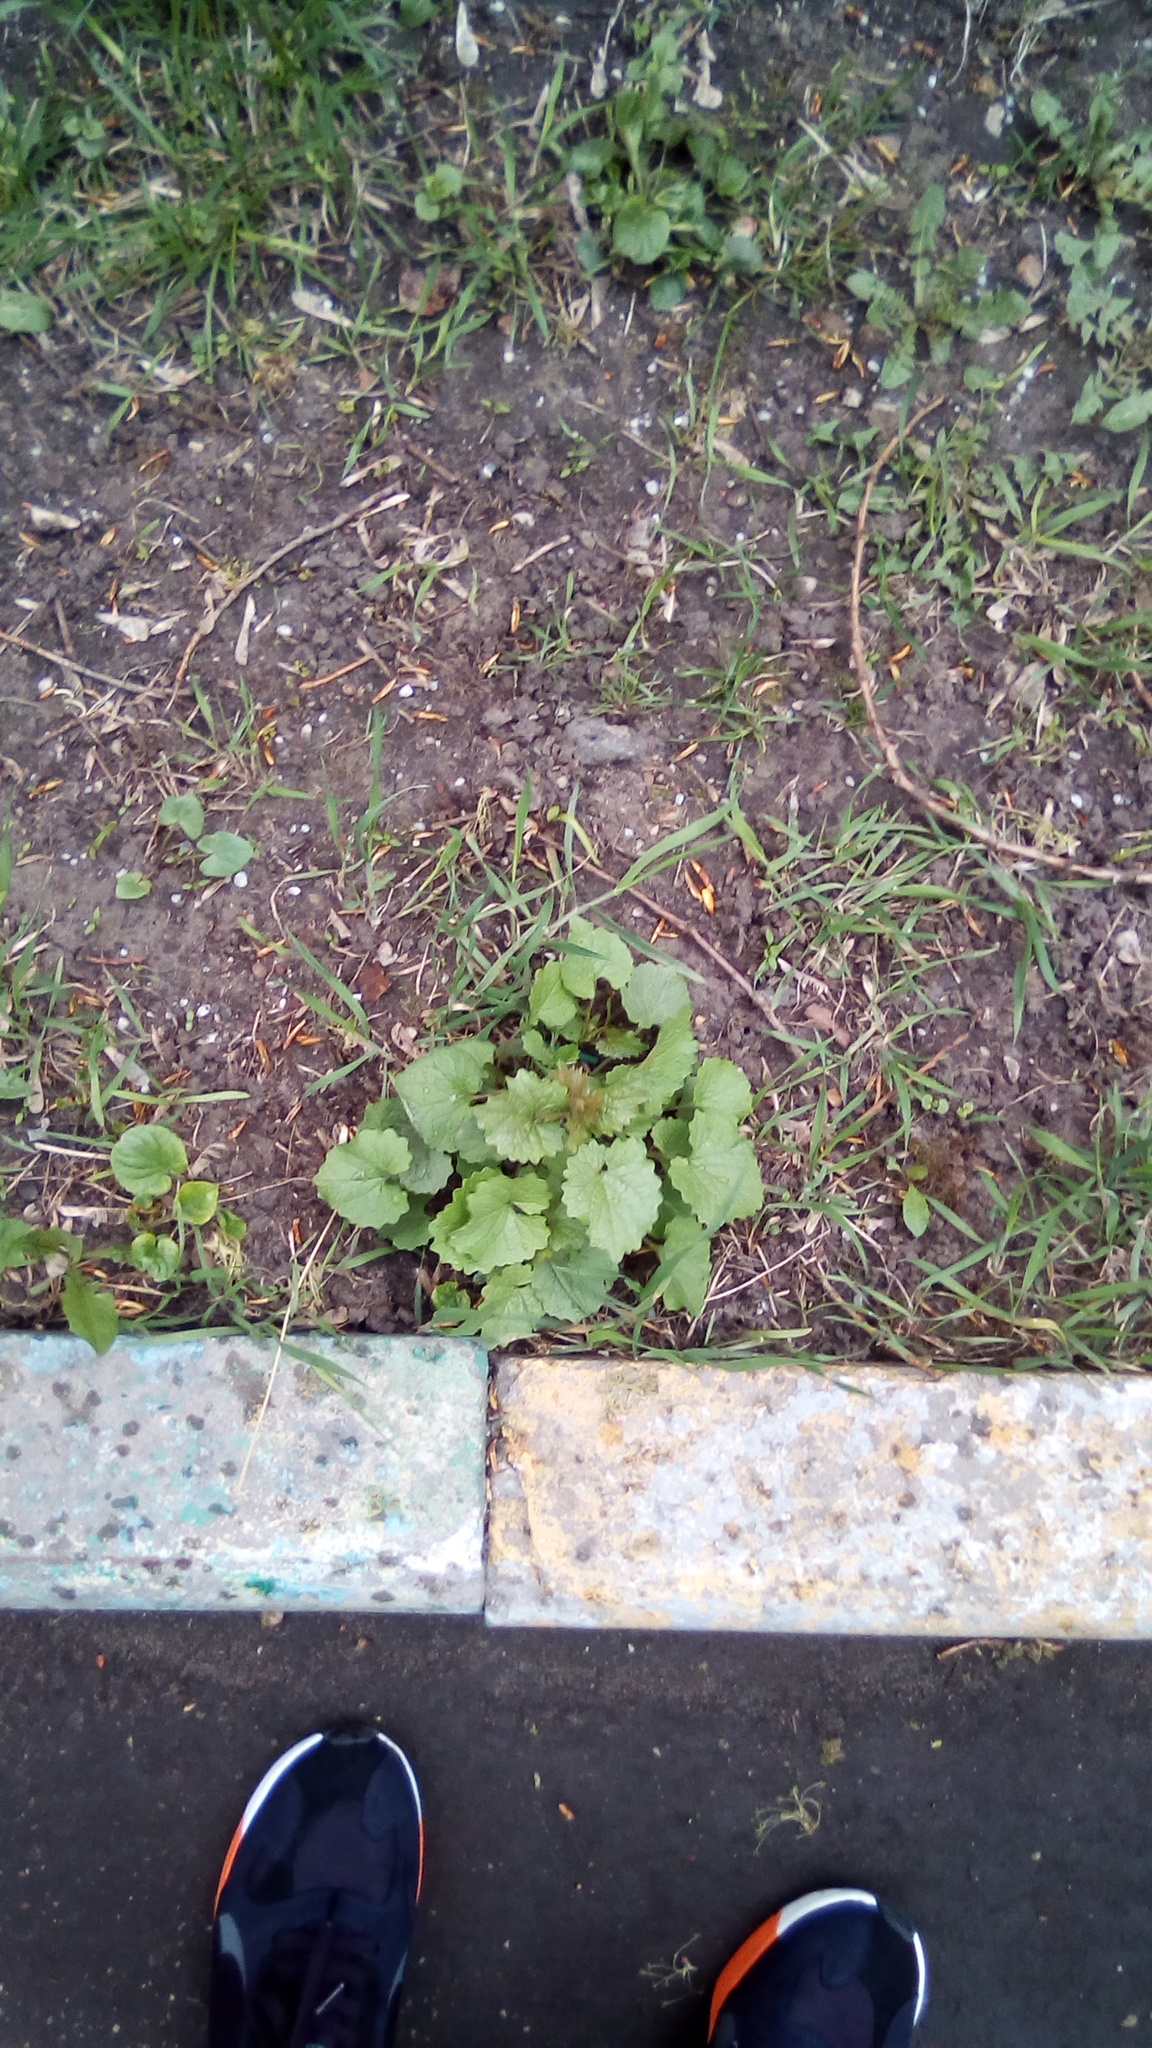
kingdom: Plantae
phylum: Tracheophyta
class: Magnoliopsida
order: Brassicales
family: Brassicaceae
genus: Alliaria
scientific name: Alliaria petiolata
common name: Garlic mustard
